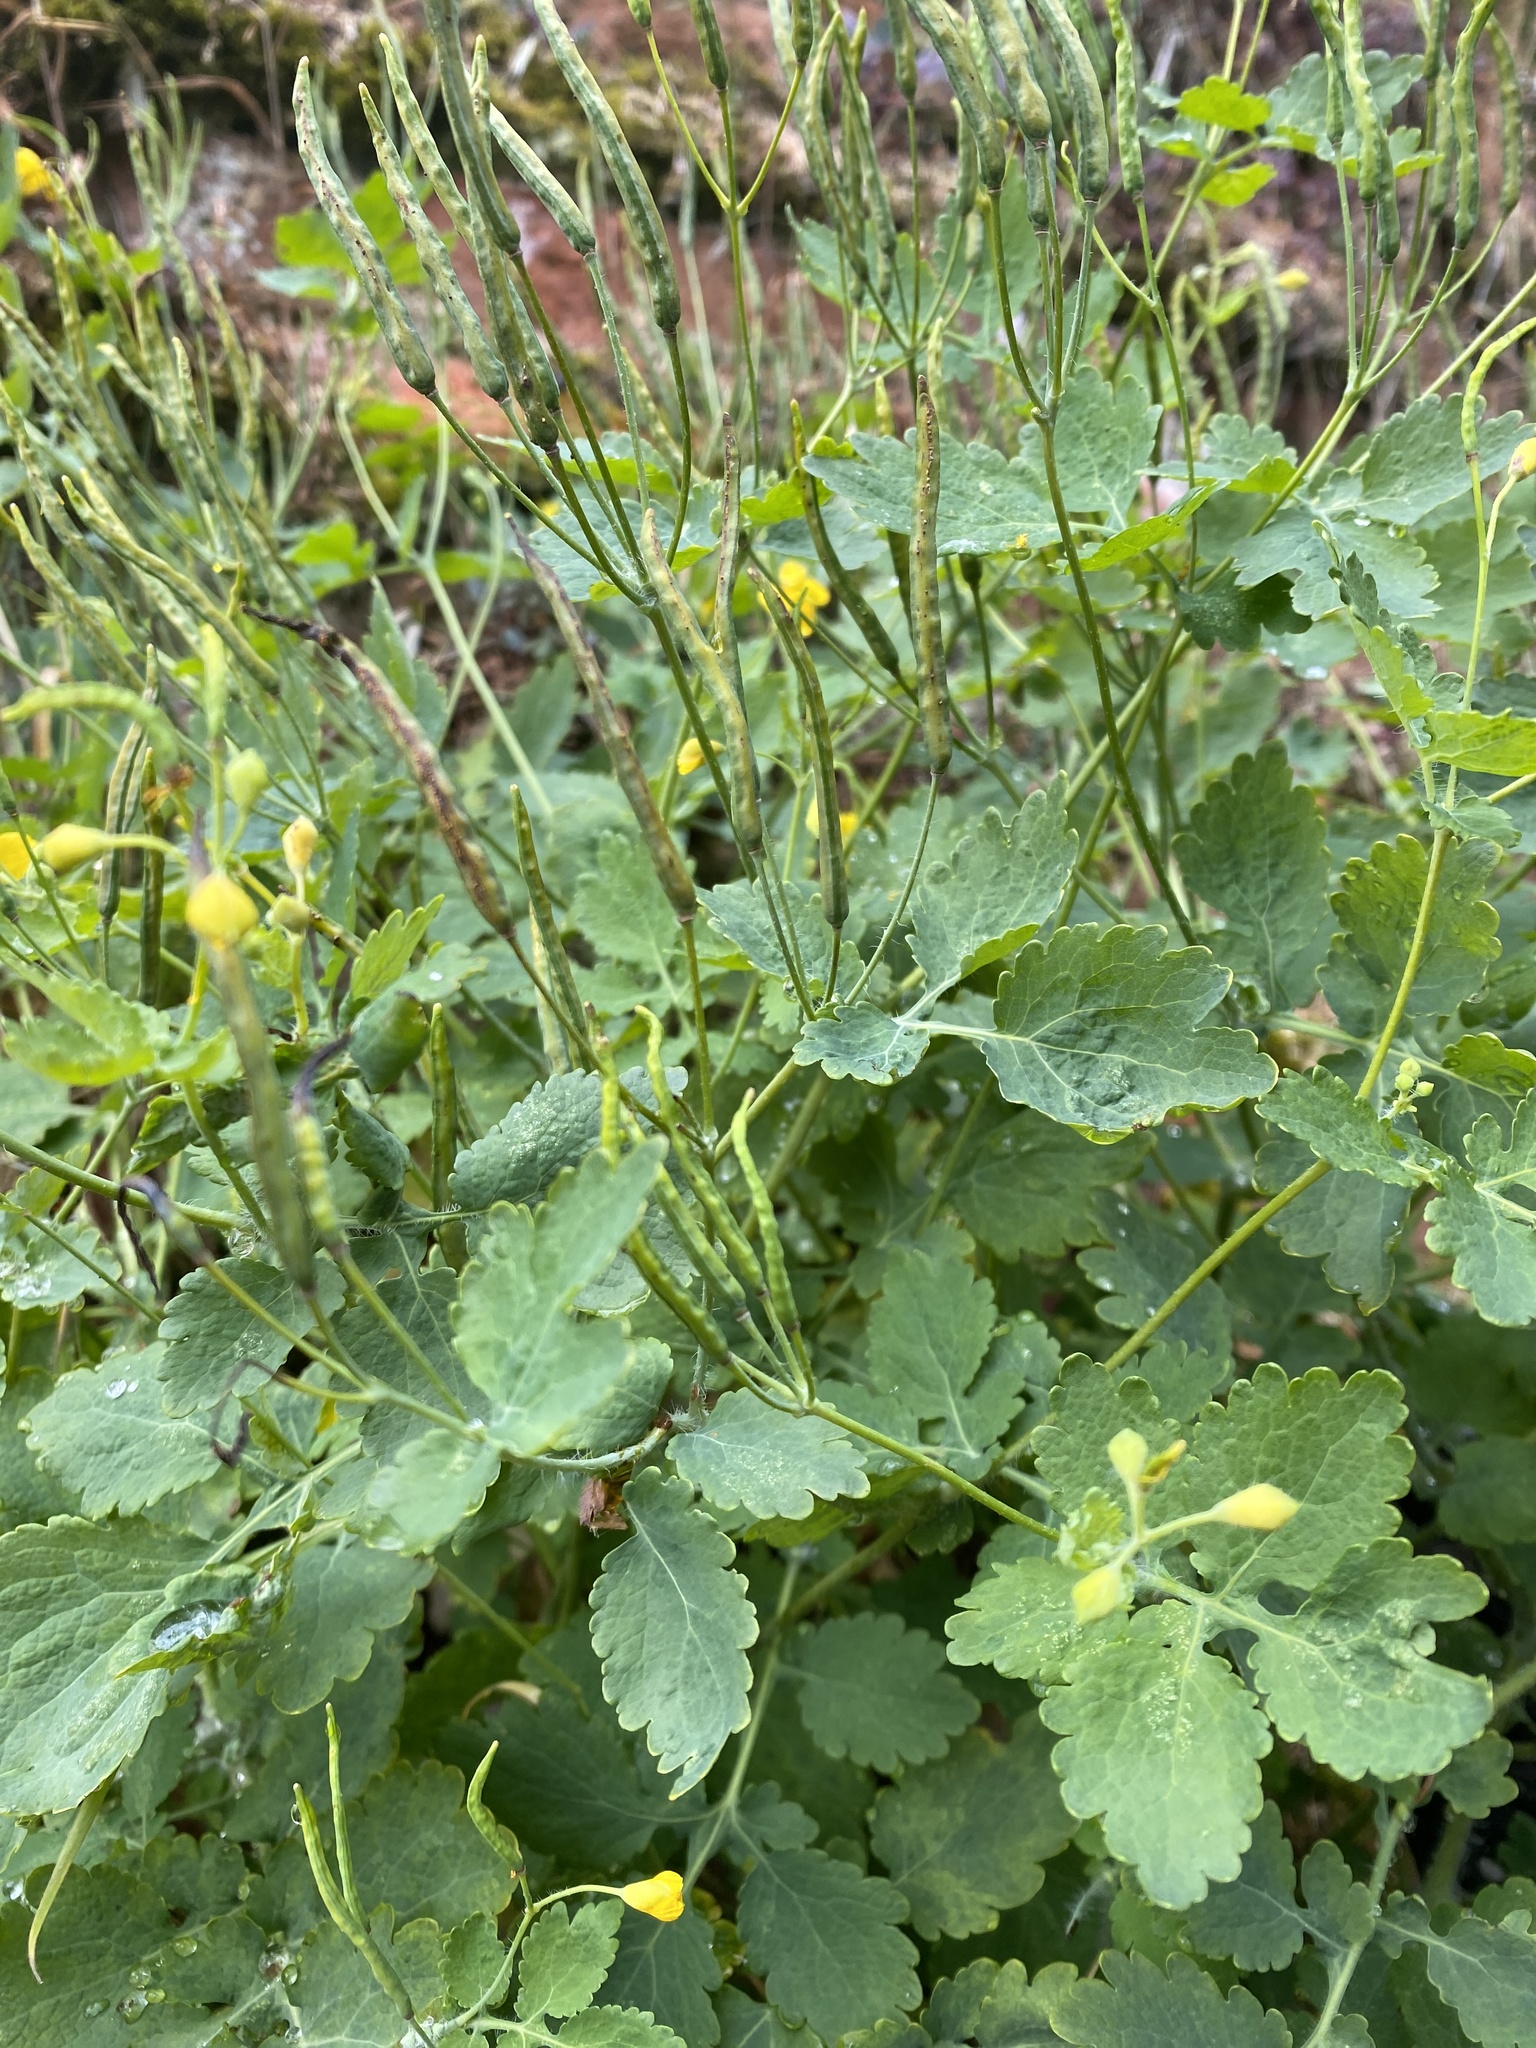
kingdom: Plantae
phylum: Tracheophyta
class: Magnoliopsida
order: Ranunculales
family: Papaveraceae
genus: Chelidonium
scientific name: Chelidonium majus
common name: Greater celandine
